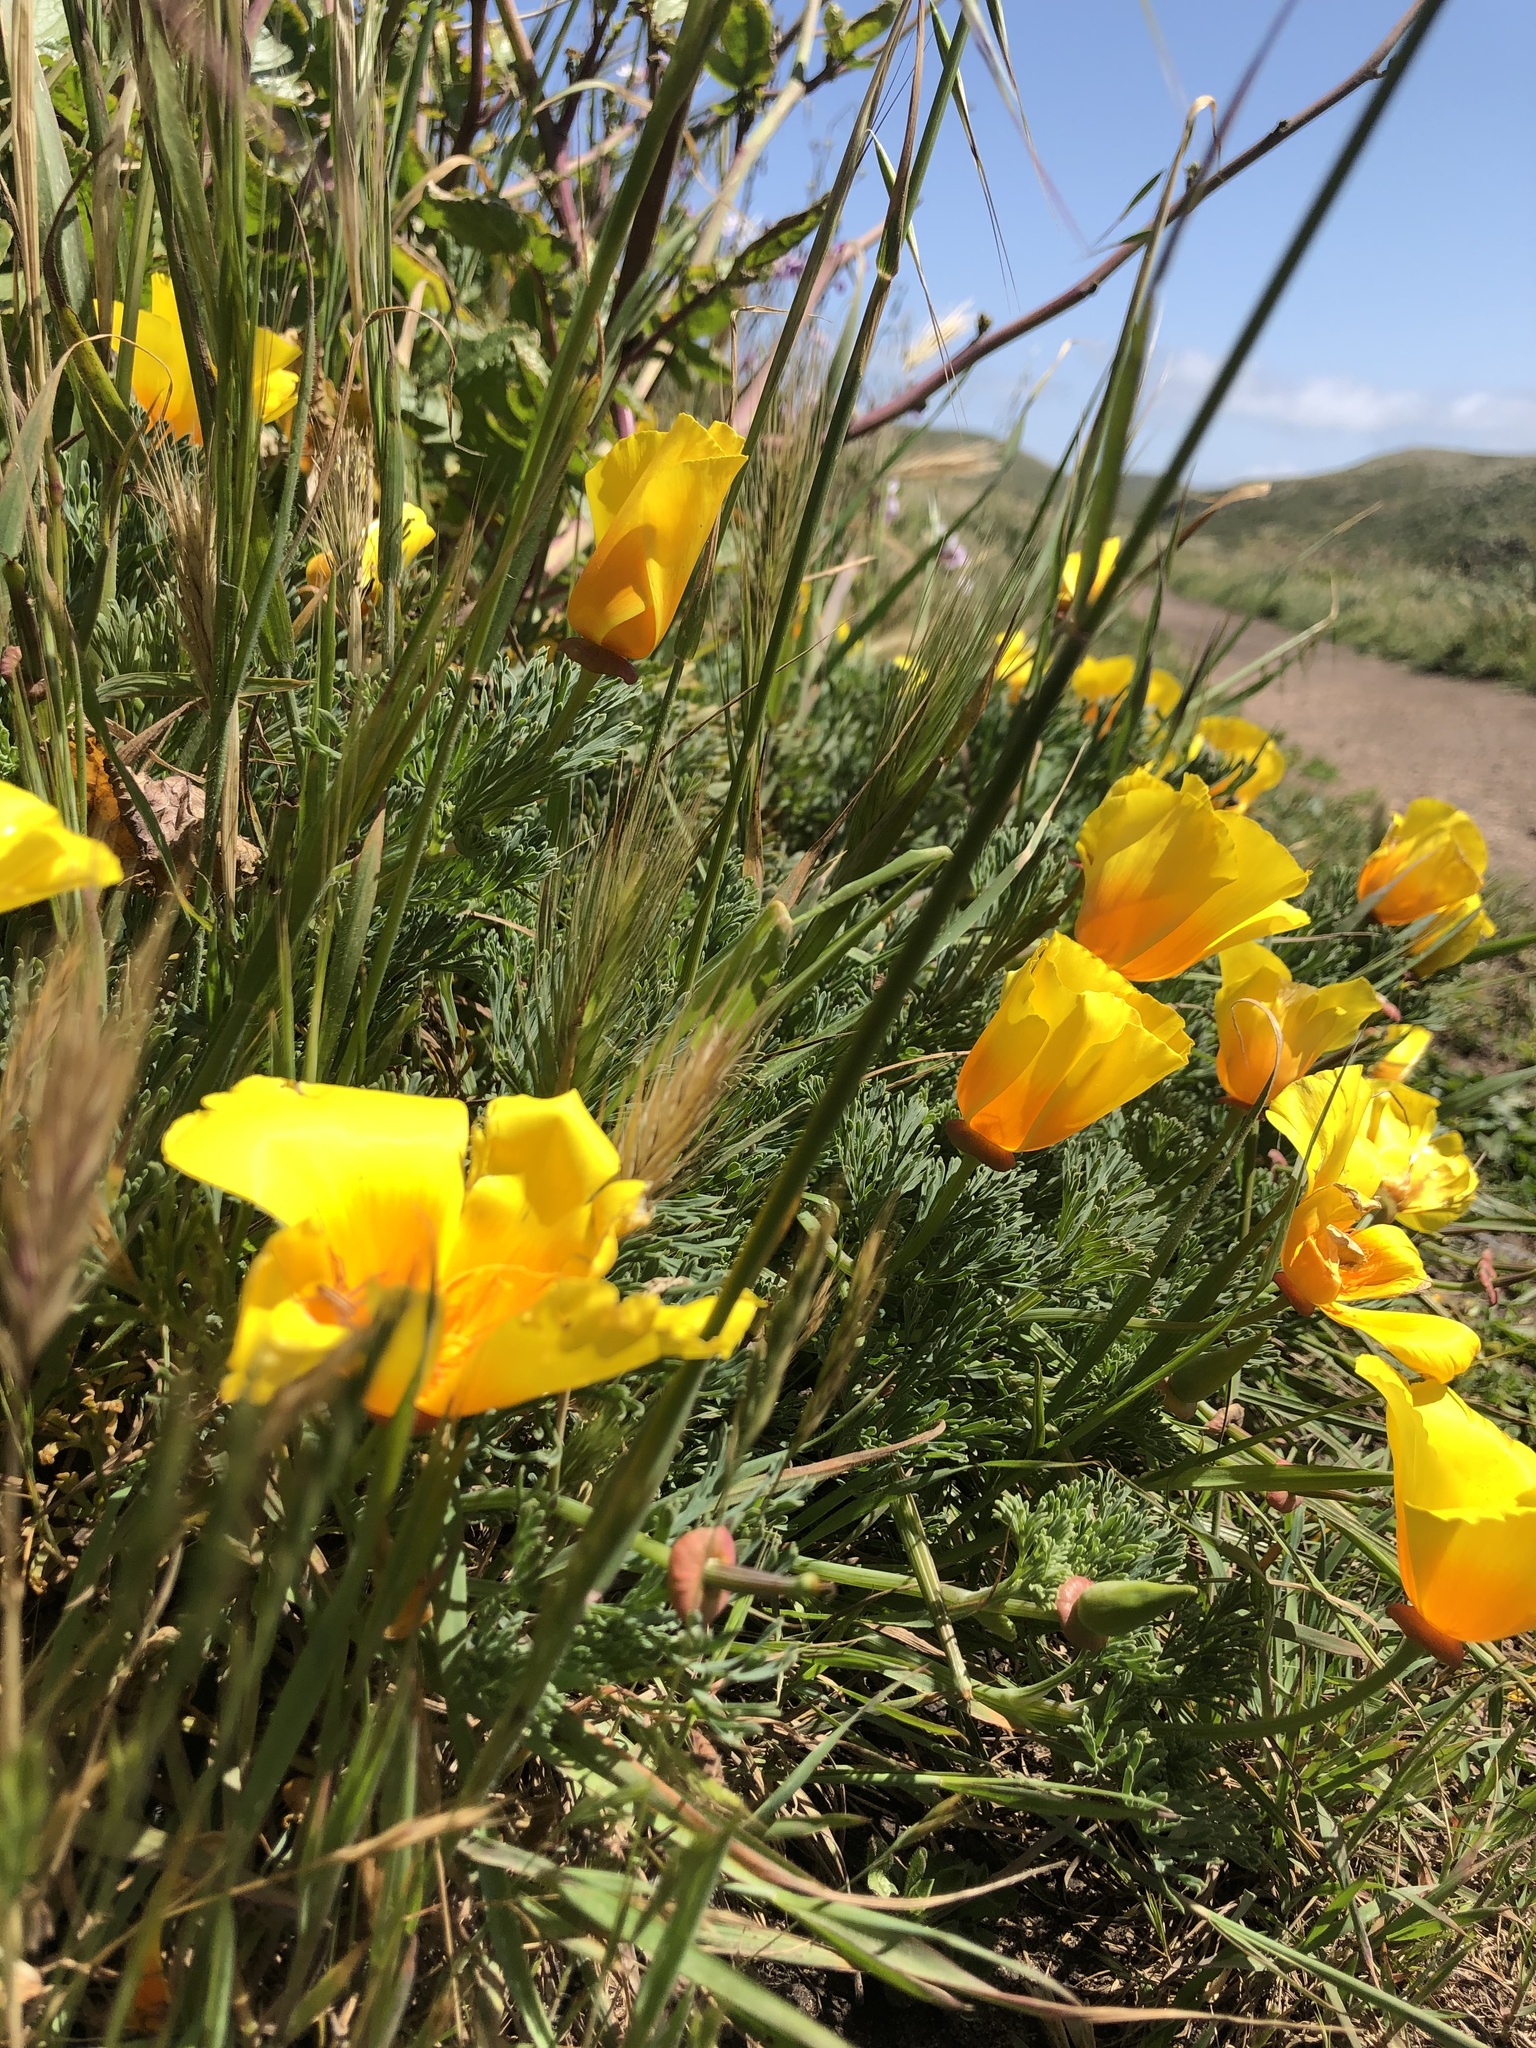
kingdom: Plantae
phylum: Tracheophyta
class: Magnoliopsida
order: Ranunculales
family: Papaveraceae
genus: Eschscholzia
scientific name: Eschscholzia californica
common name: California poppy
